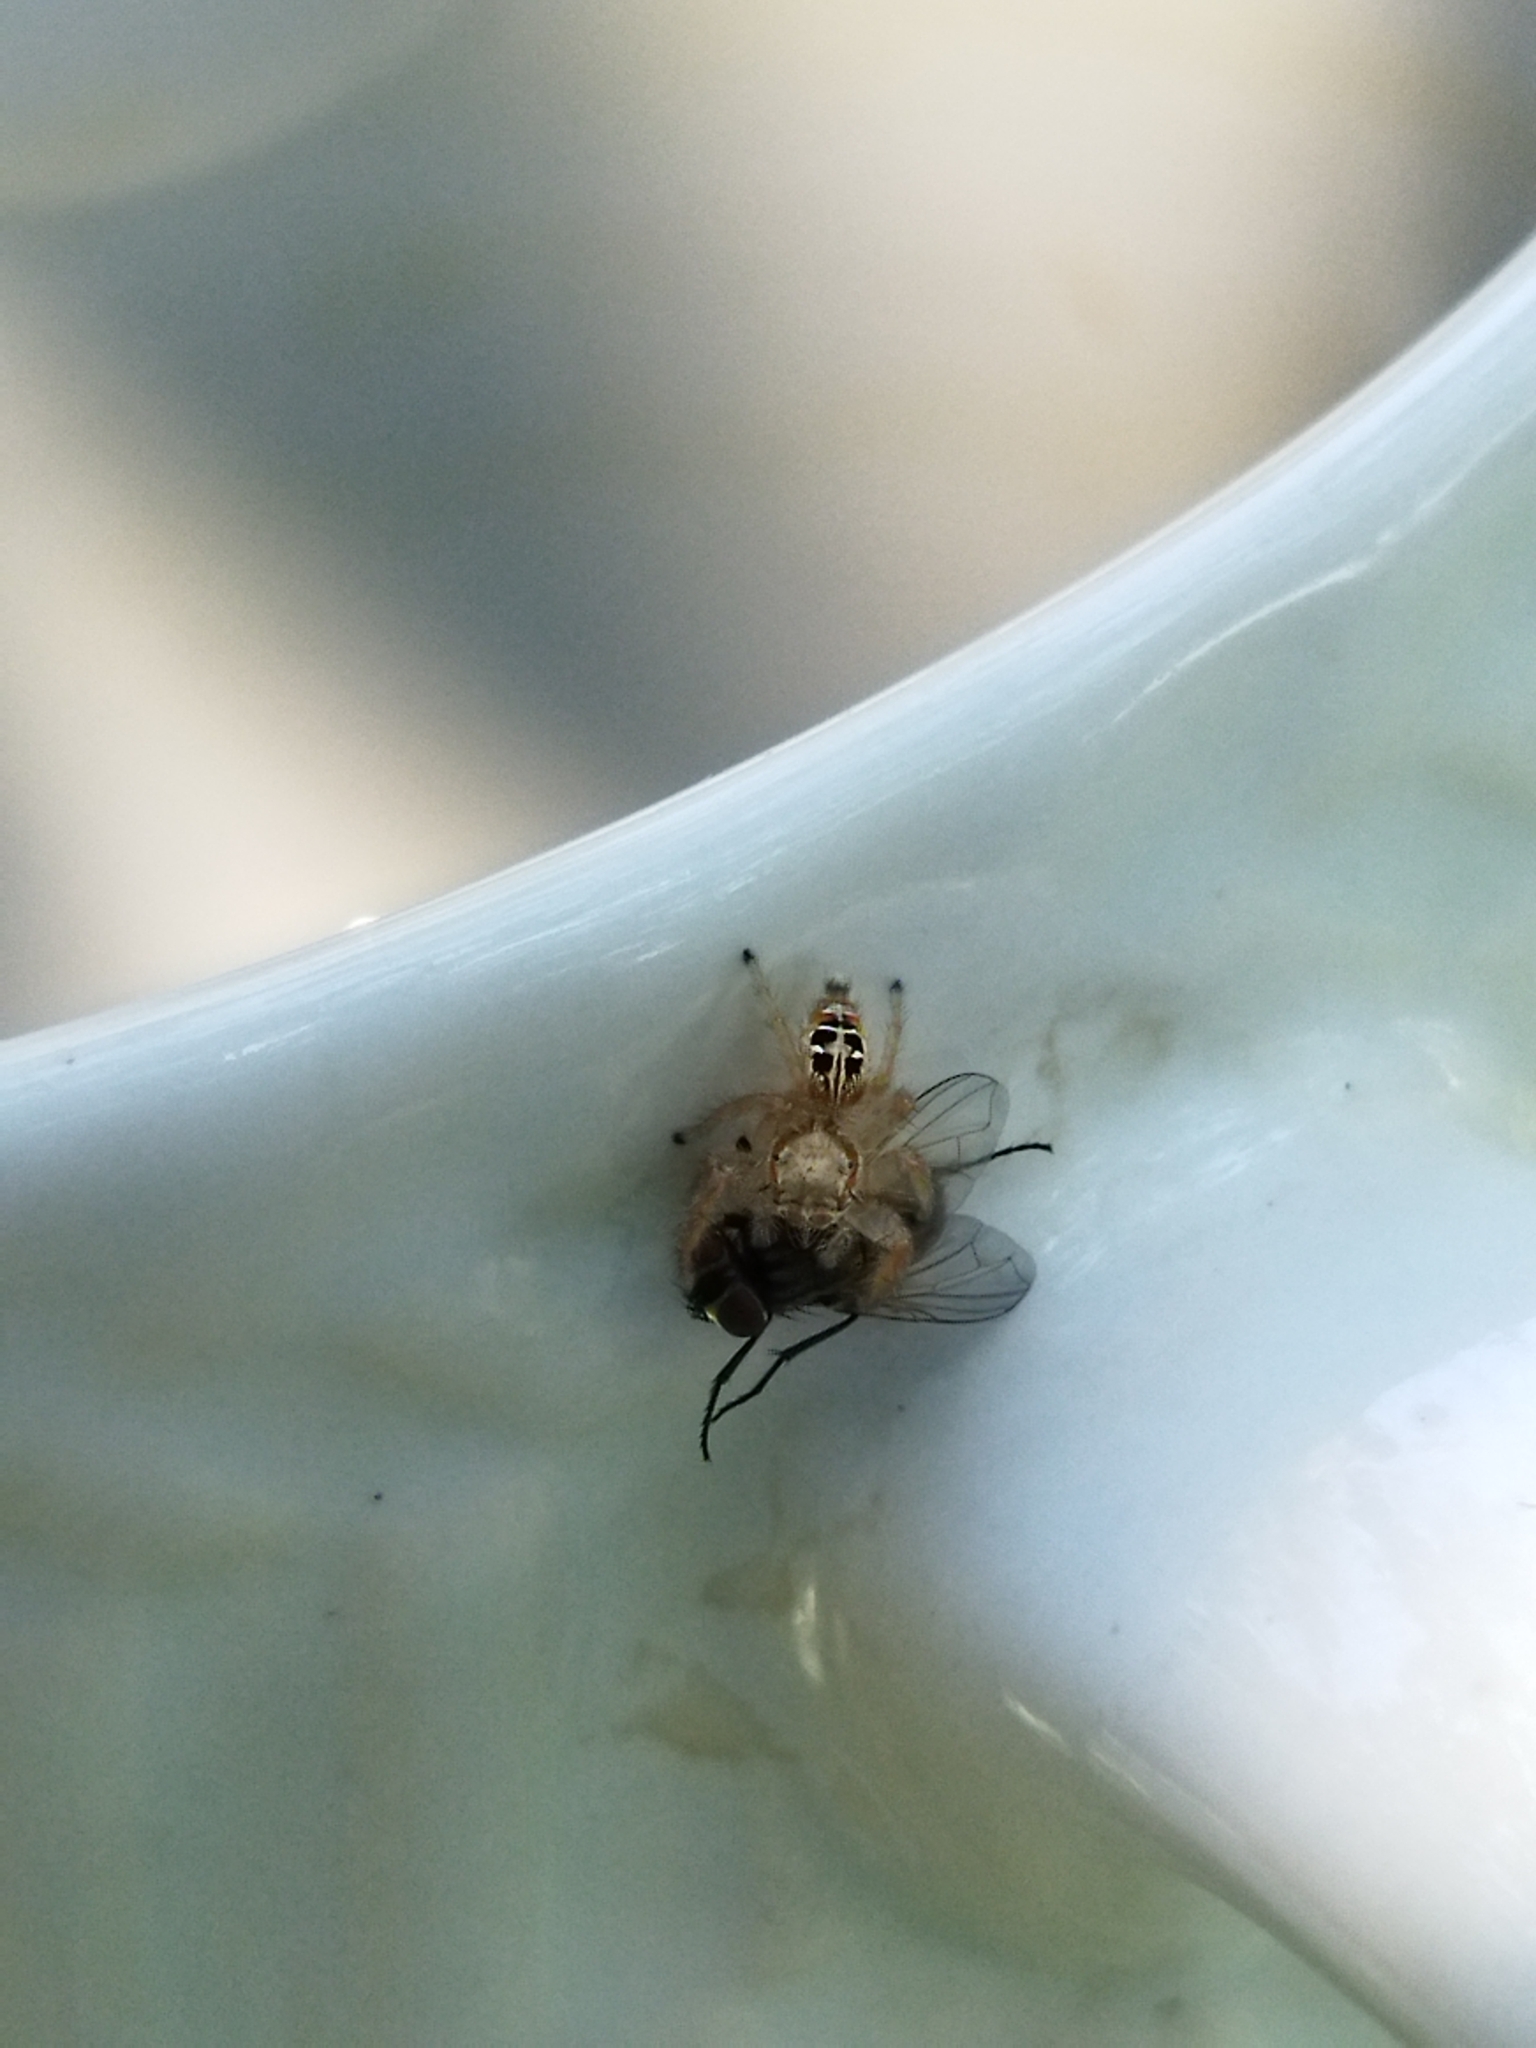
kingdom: Animalia
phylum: Arthropoda
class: Arachnida
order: Araneae
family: Salticidae
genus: Thyene
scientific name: Thyene imperialis
